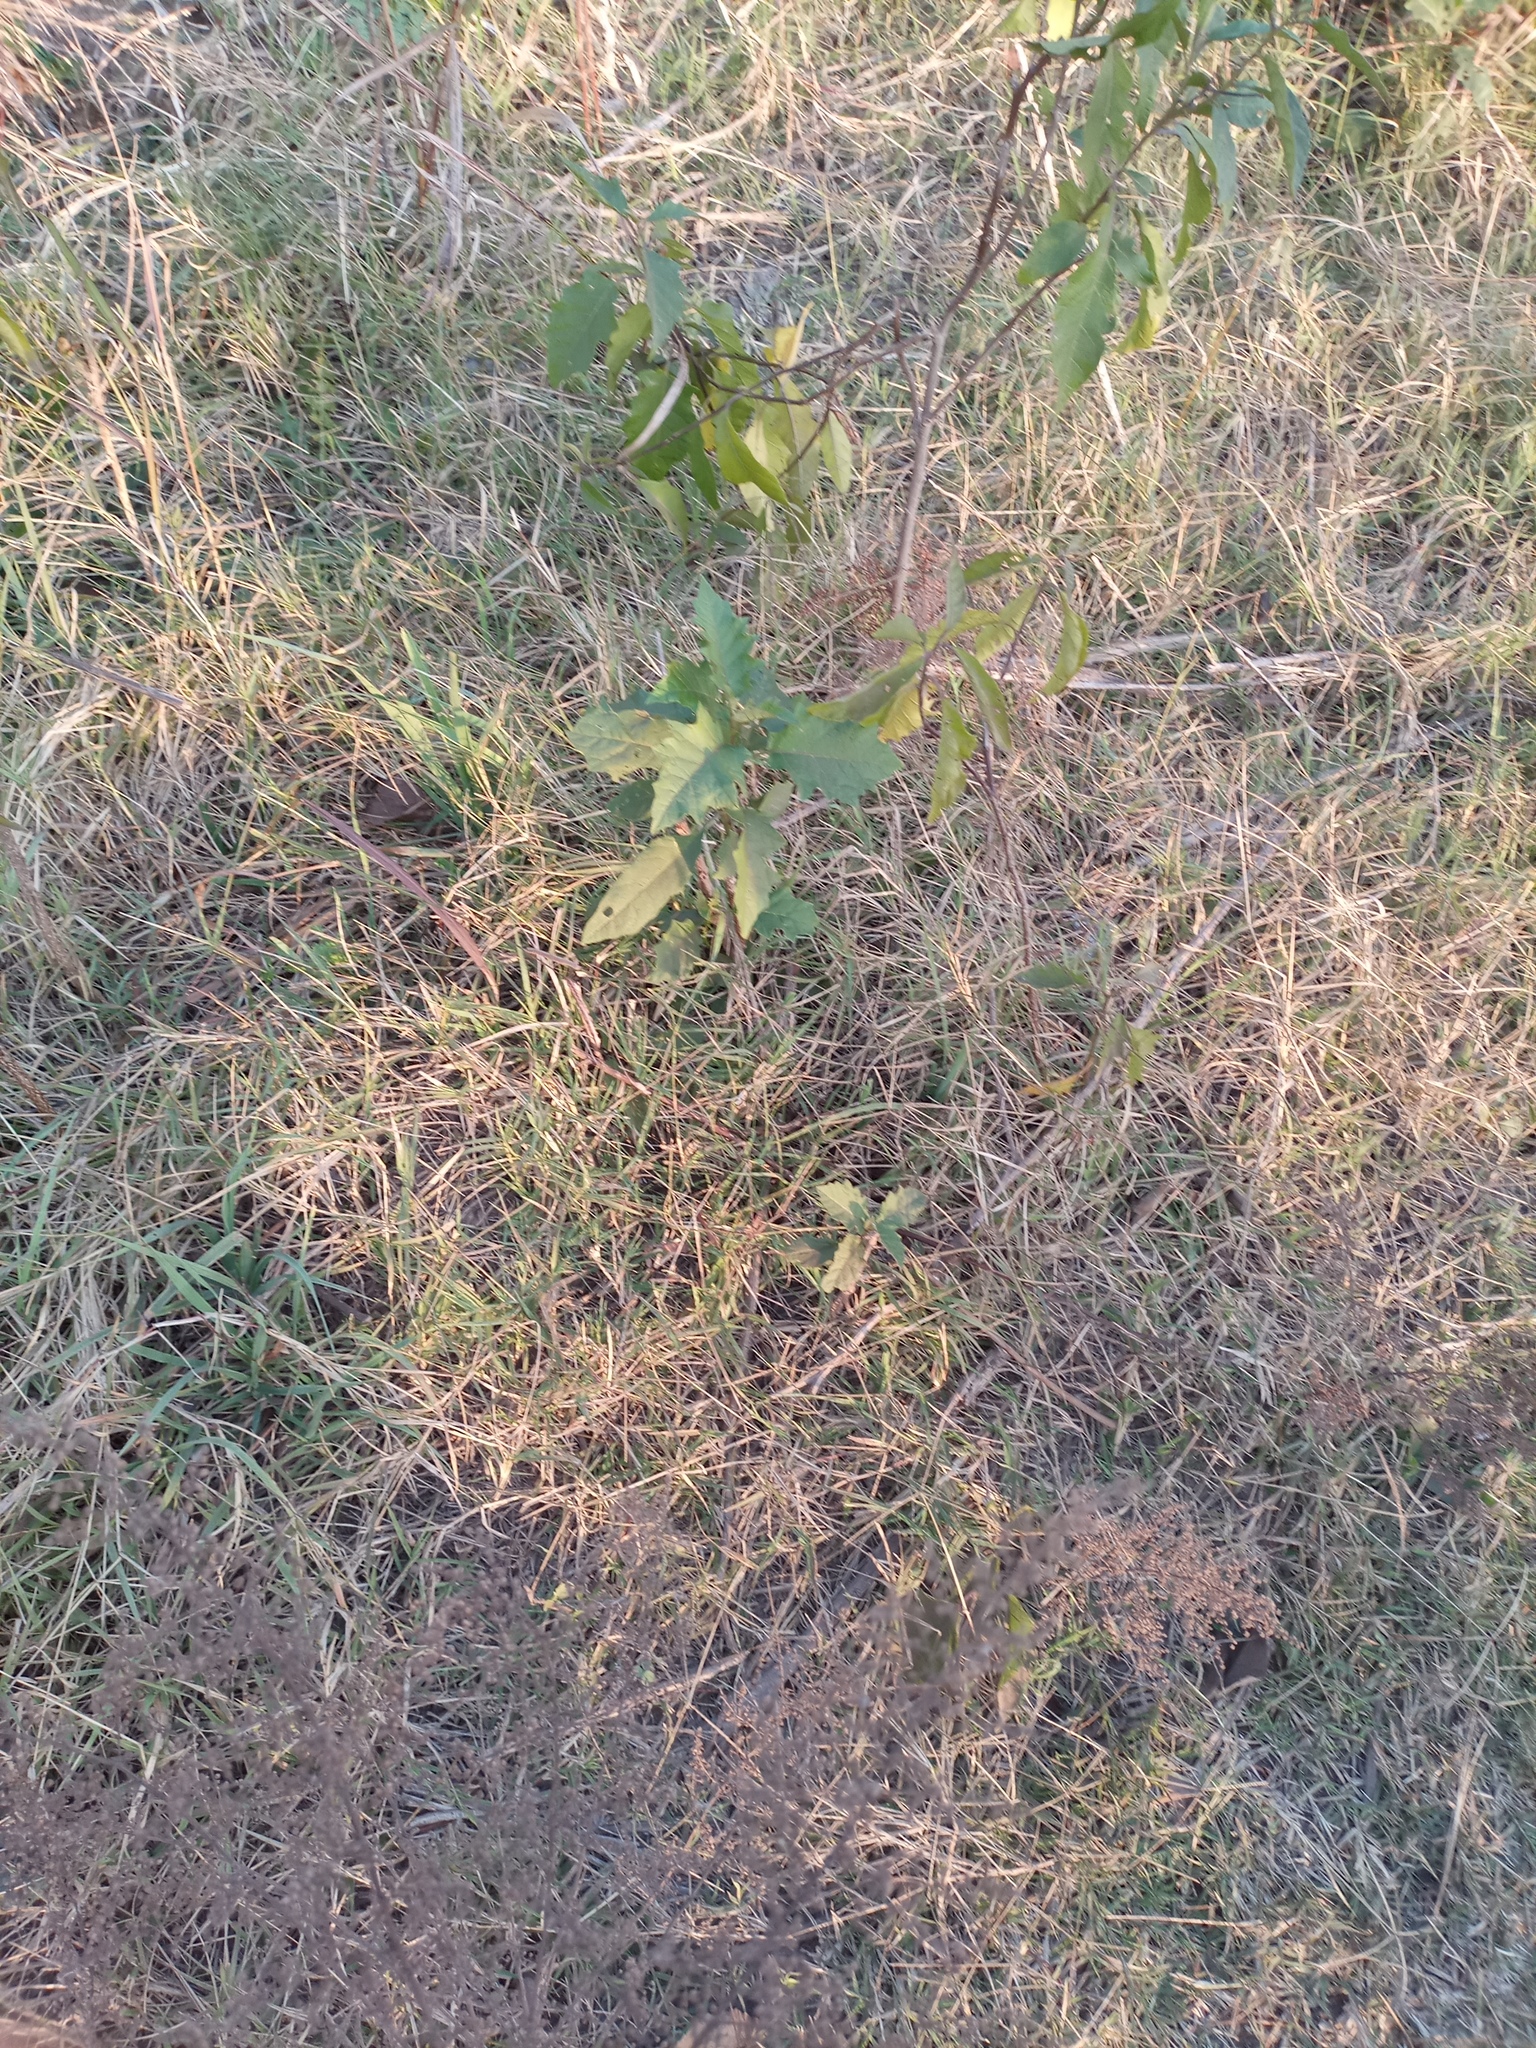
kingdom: Plantae
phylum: Tracheophyta
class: Magnoliopsida
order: Solanales
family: Solanaceae
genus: Solanum
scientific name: Solanum bonariense
